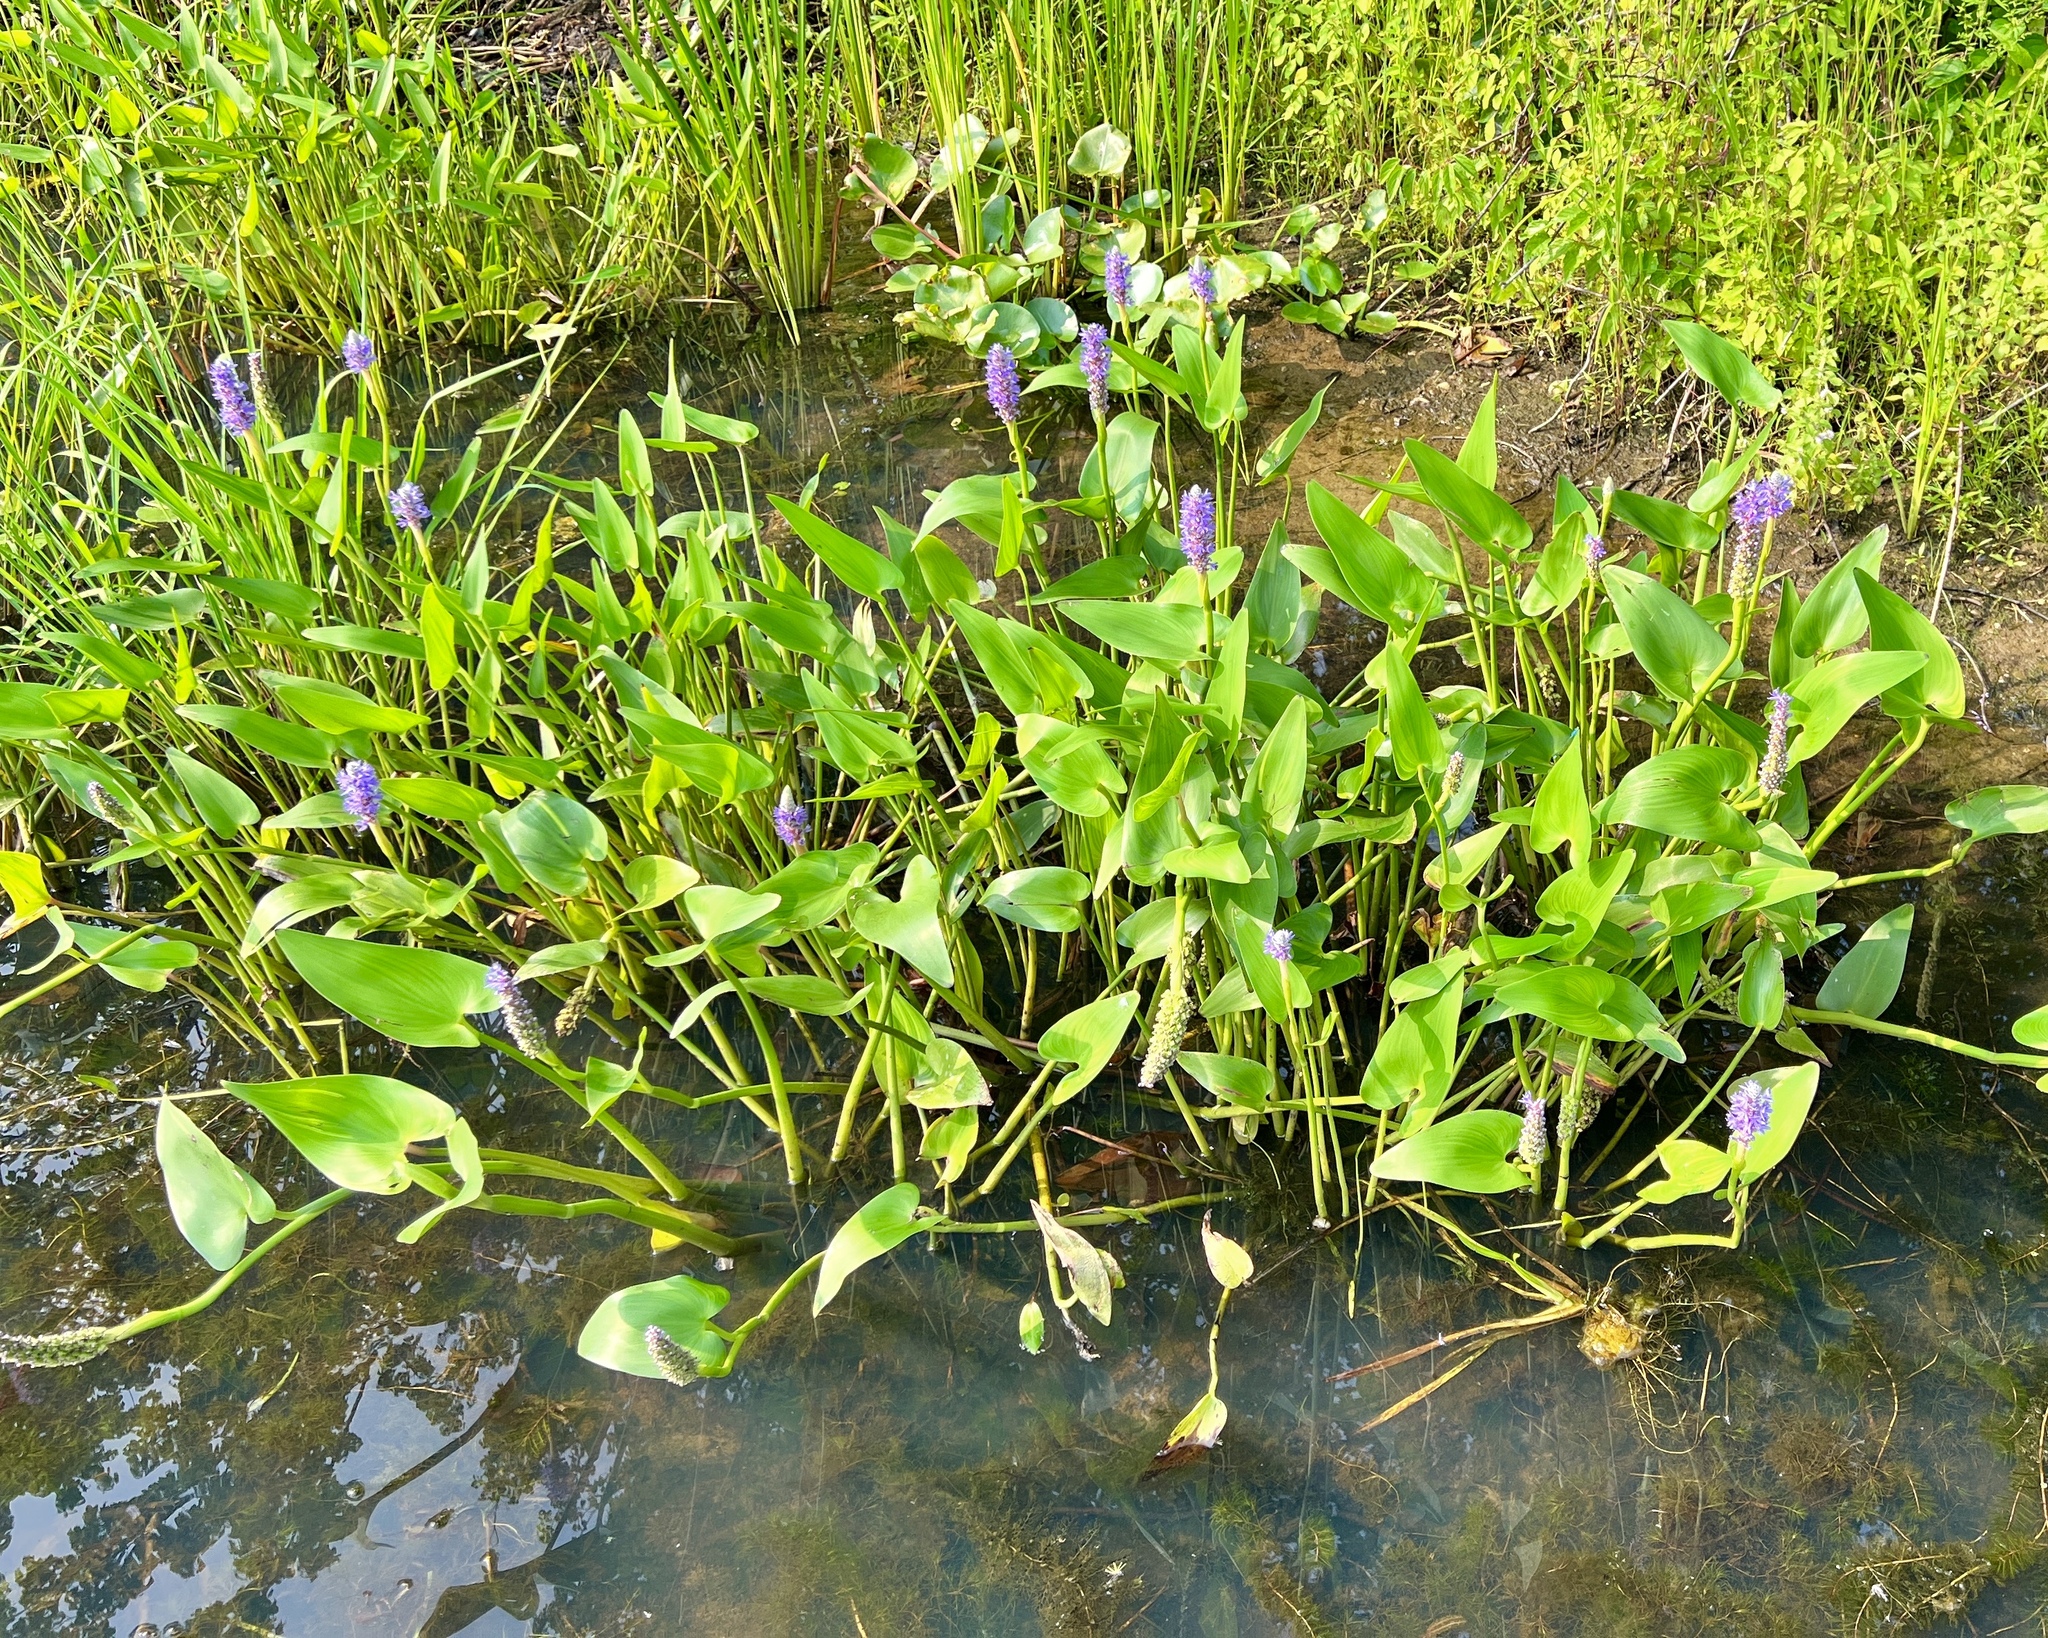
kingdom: Plantae
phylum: Tracheophyta
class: Liliopsida
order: Commelinales
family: Pontederiaceae
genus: Pontederia
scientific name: Pontederia cordata
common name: Pickerelweed
